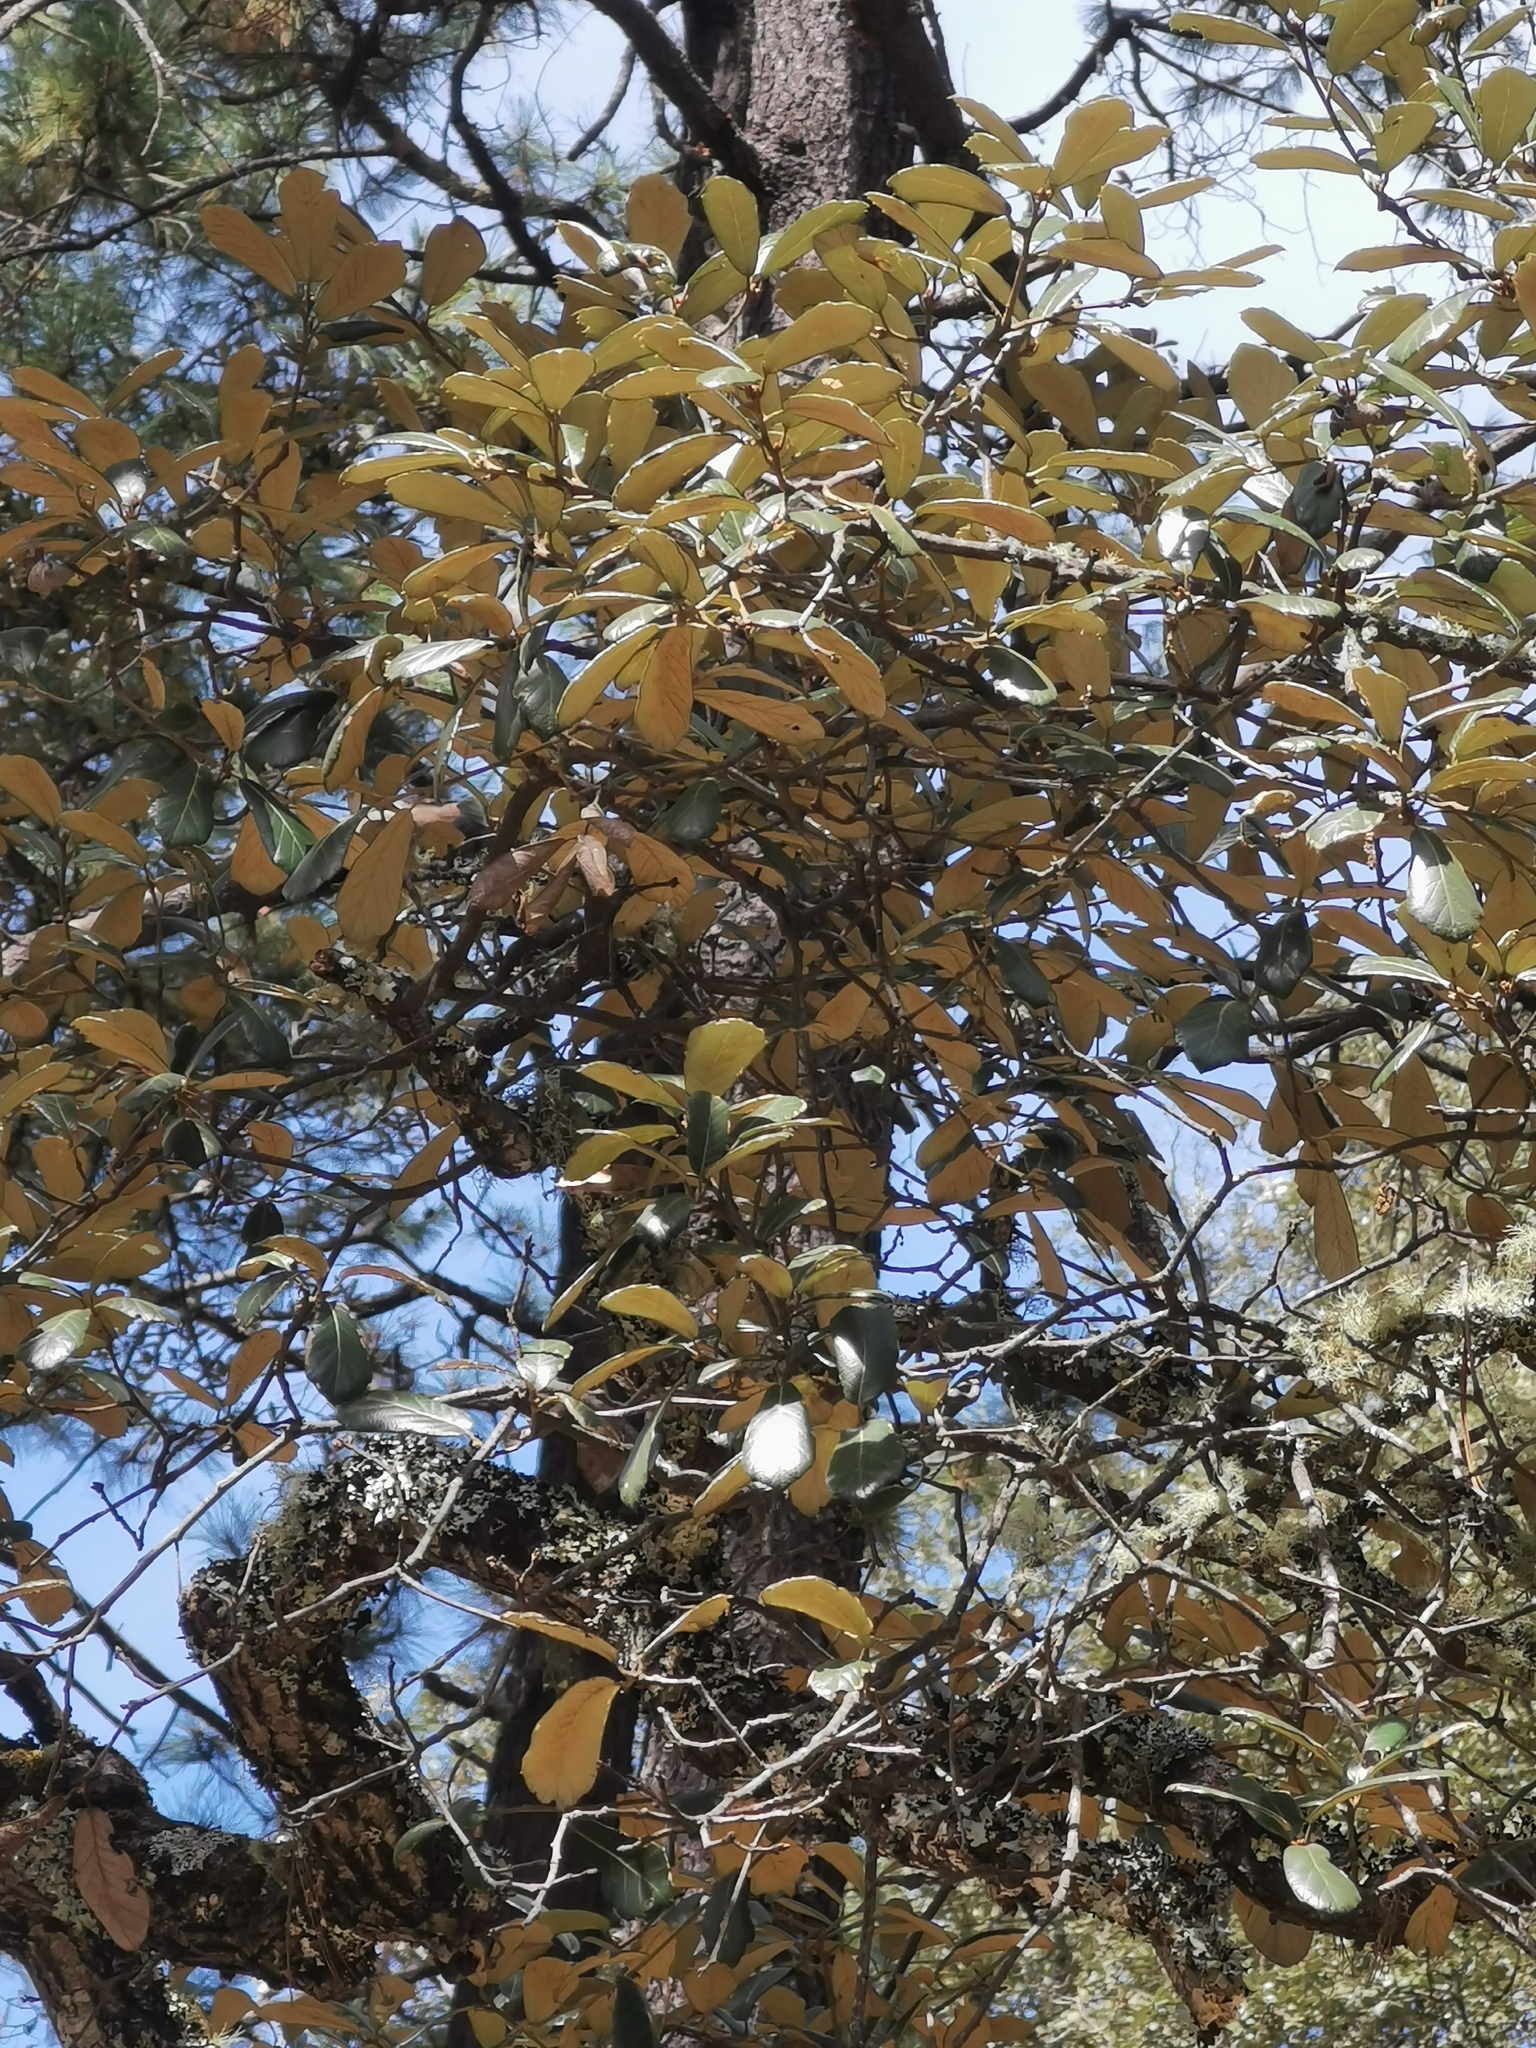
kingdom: Plantae
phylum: Tracheophyta
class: Magnoliopsida
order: Fagales
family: Fagaceae
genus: Quercus
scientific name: Quercus sideroxyla
